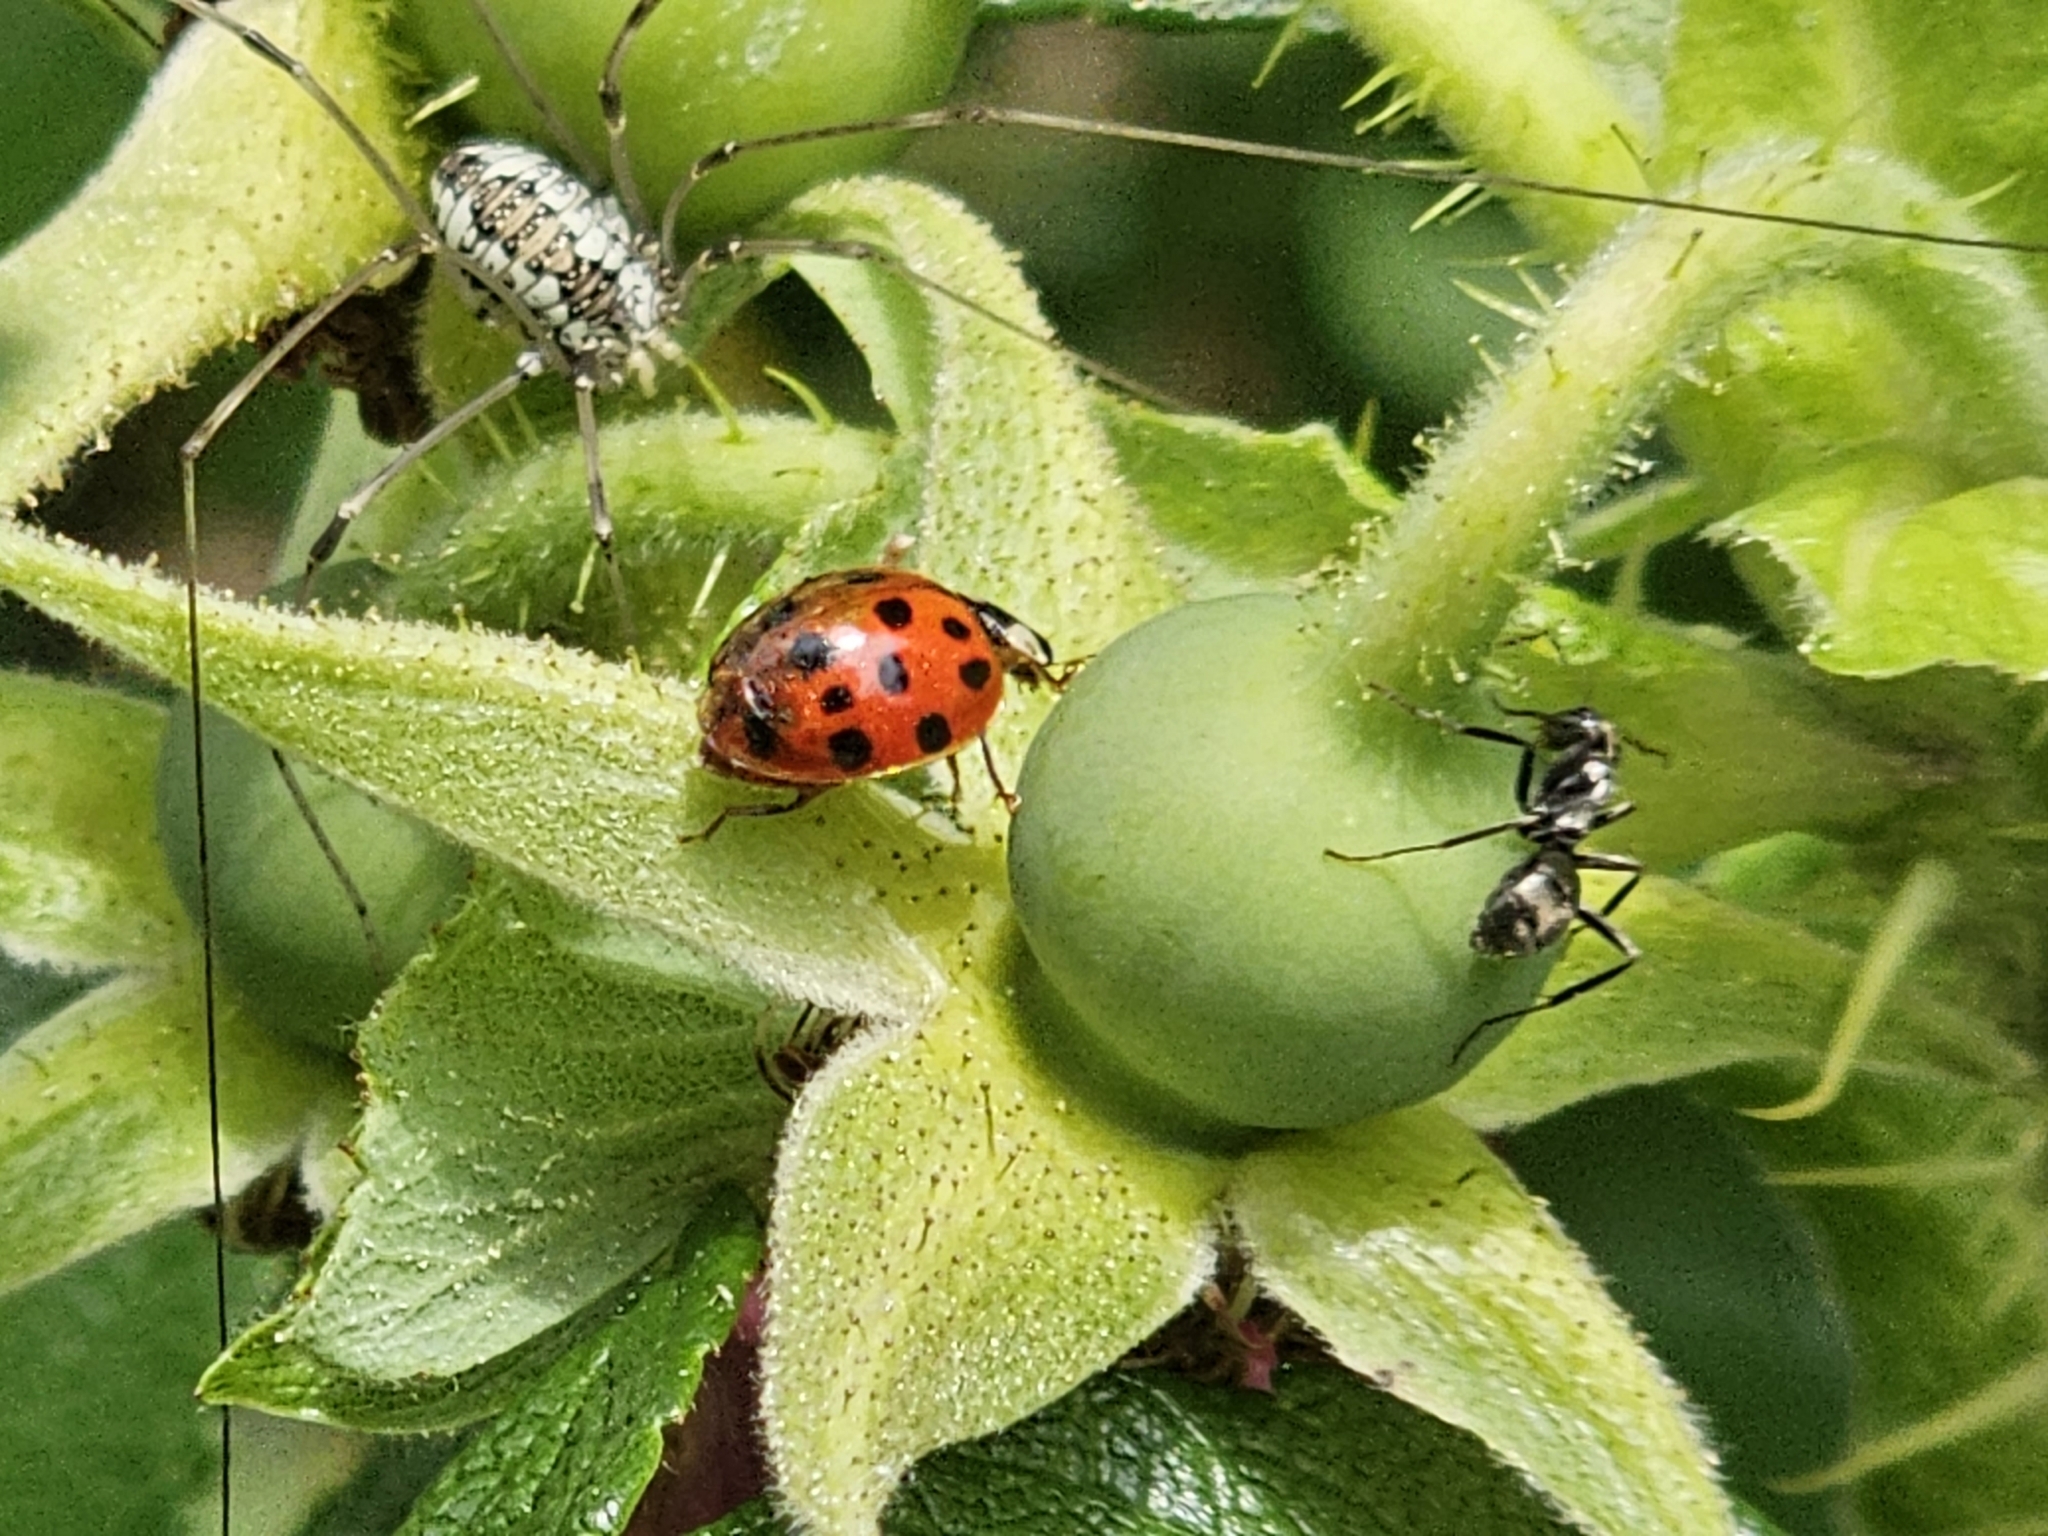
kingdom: Animalia
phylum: Arthropoda
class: Insecta
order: Coleoptera
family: Coccinellidae
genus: Harmonia
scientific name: Harmonia axyridis
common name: Harlequin ladybird
